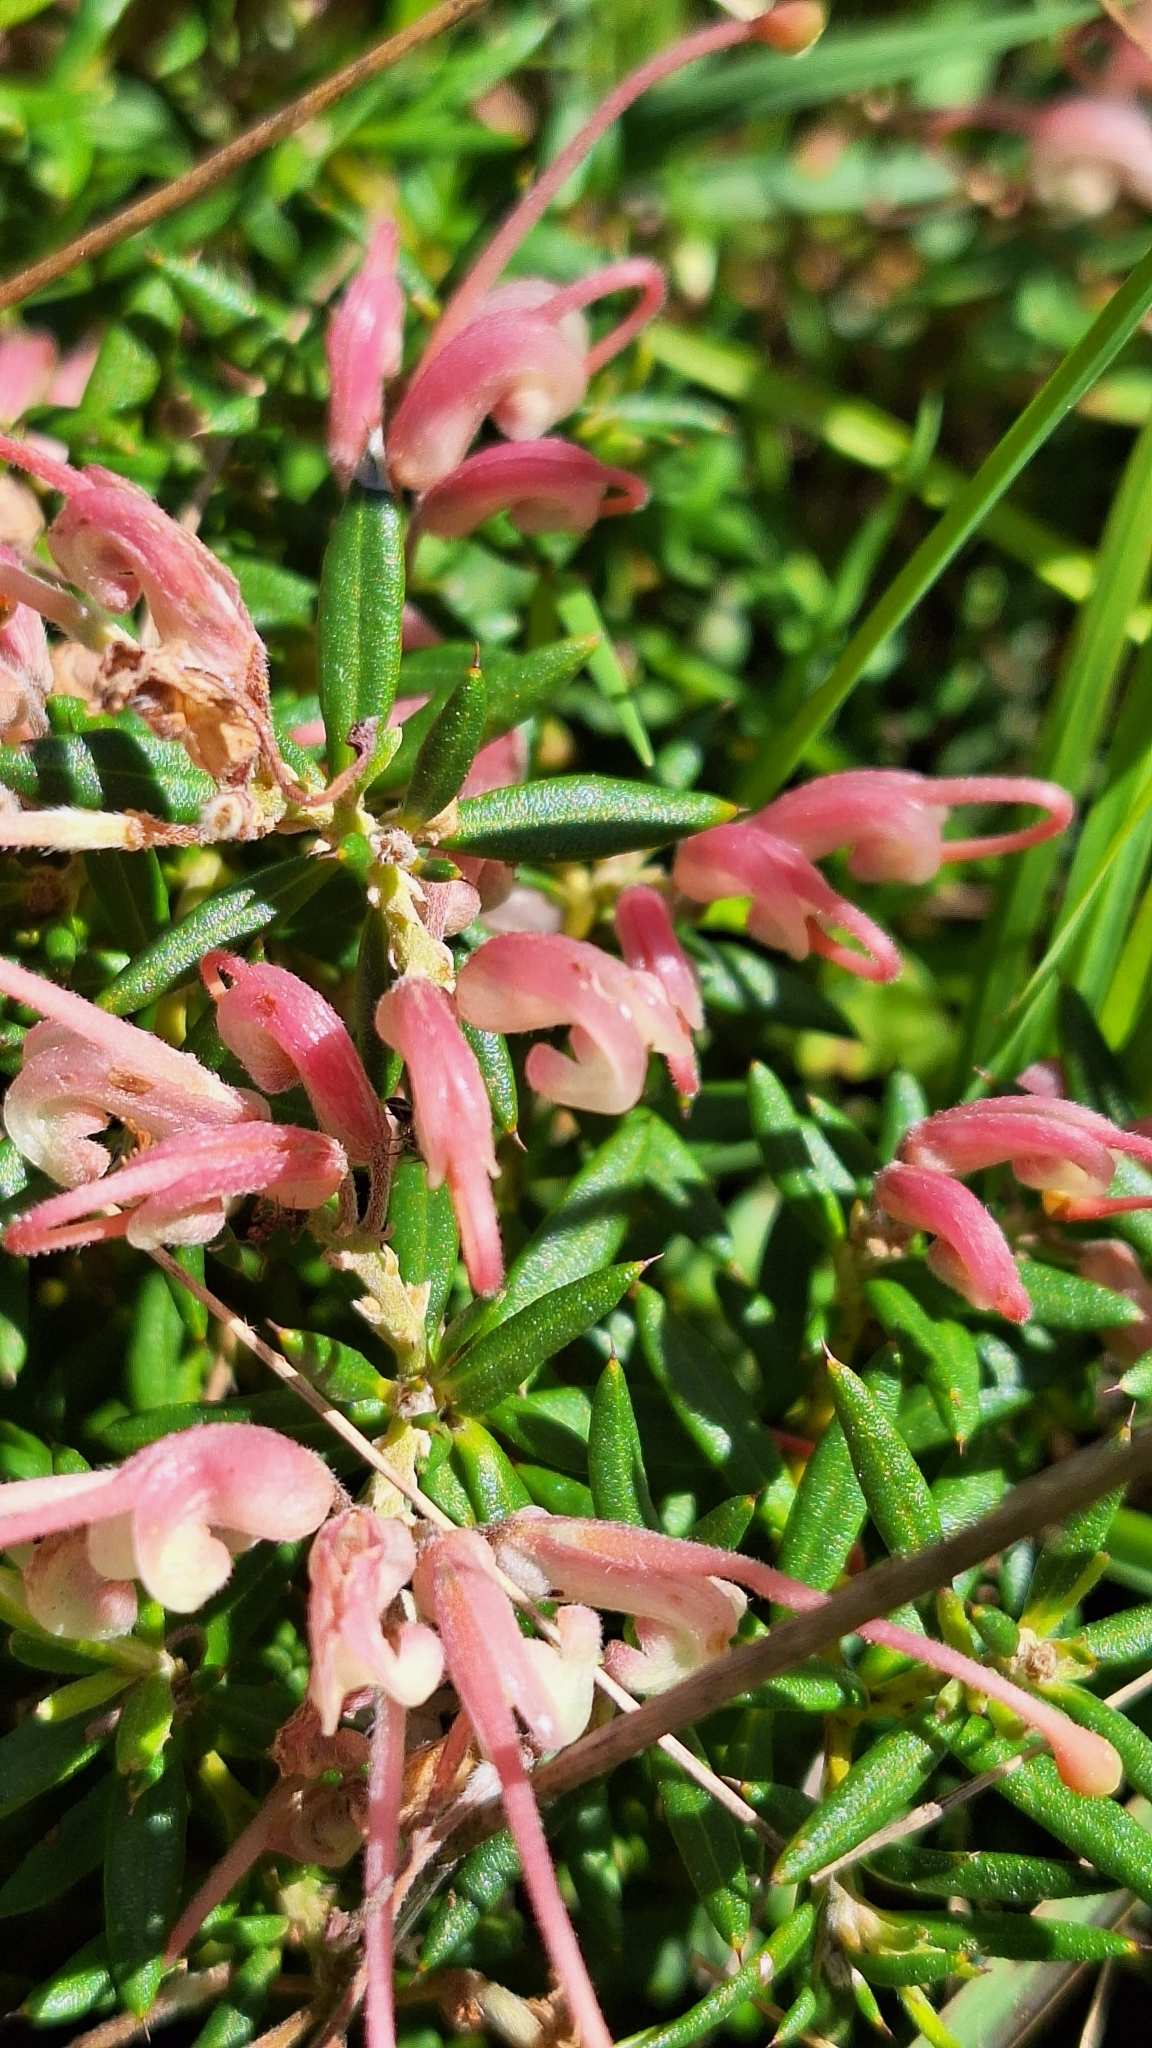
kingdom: Plantae
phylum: Tracheophyta
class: Magnoliopsida
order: Proteales
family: Proteaceae
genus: Grevillea
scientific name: Grevillea lavandulacea
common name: Lavender grevillea
